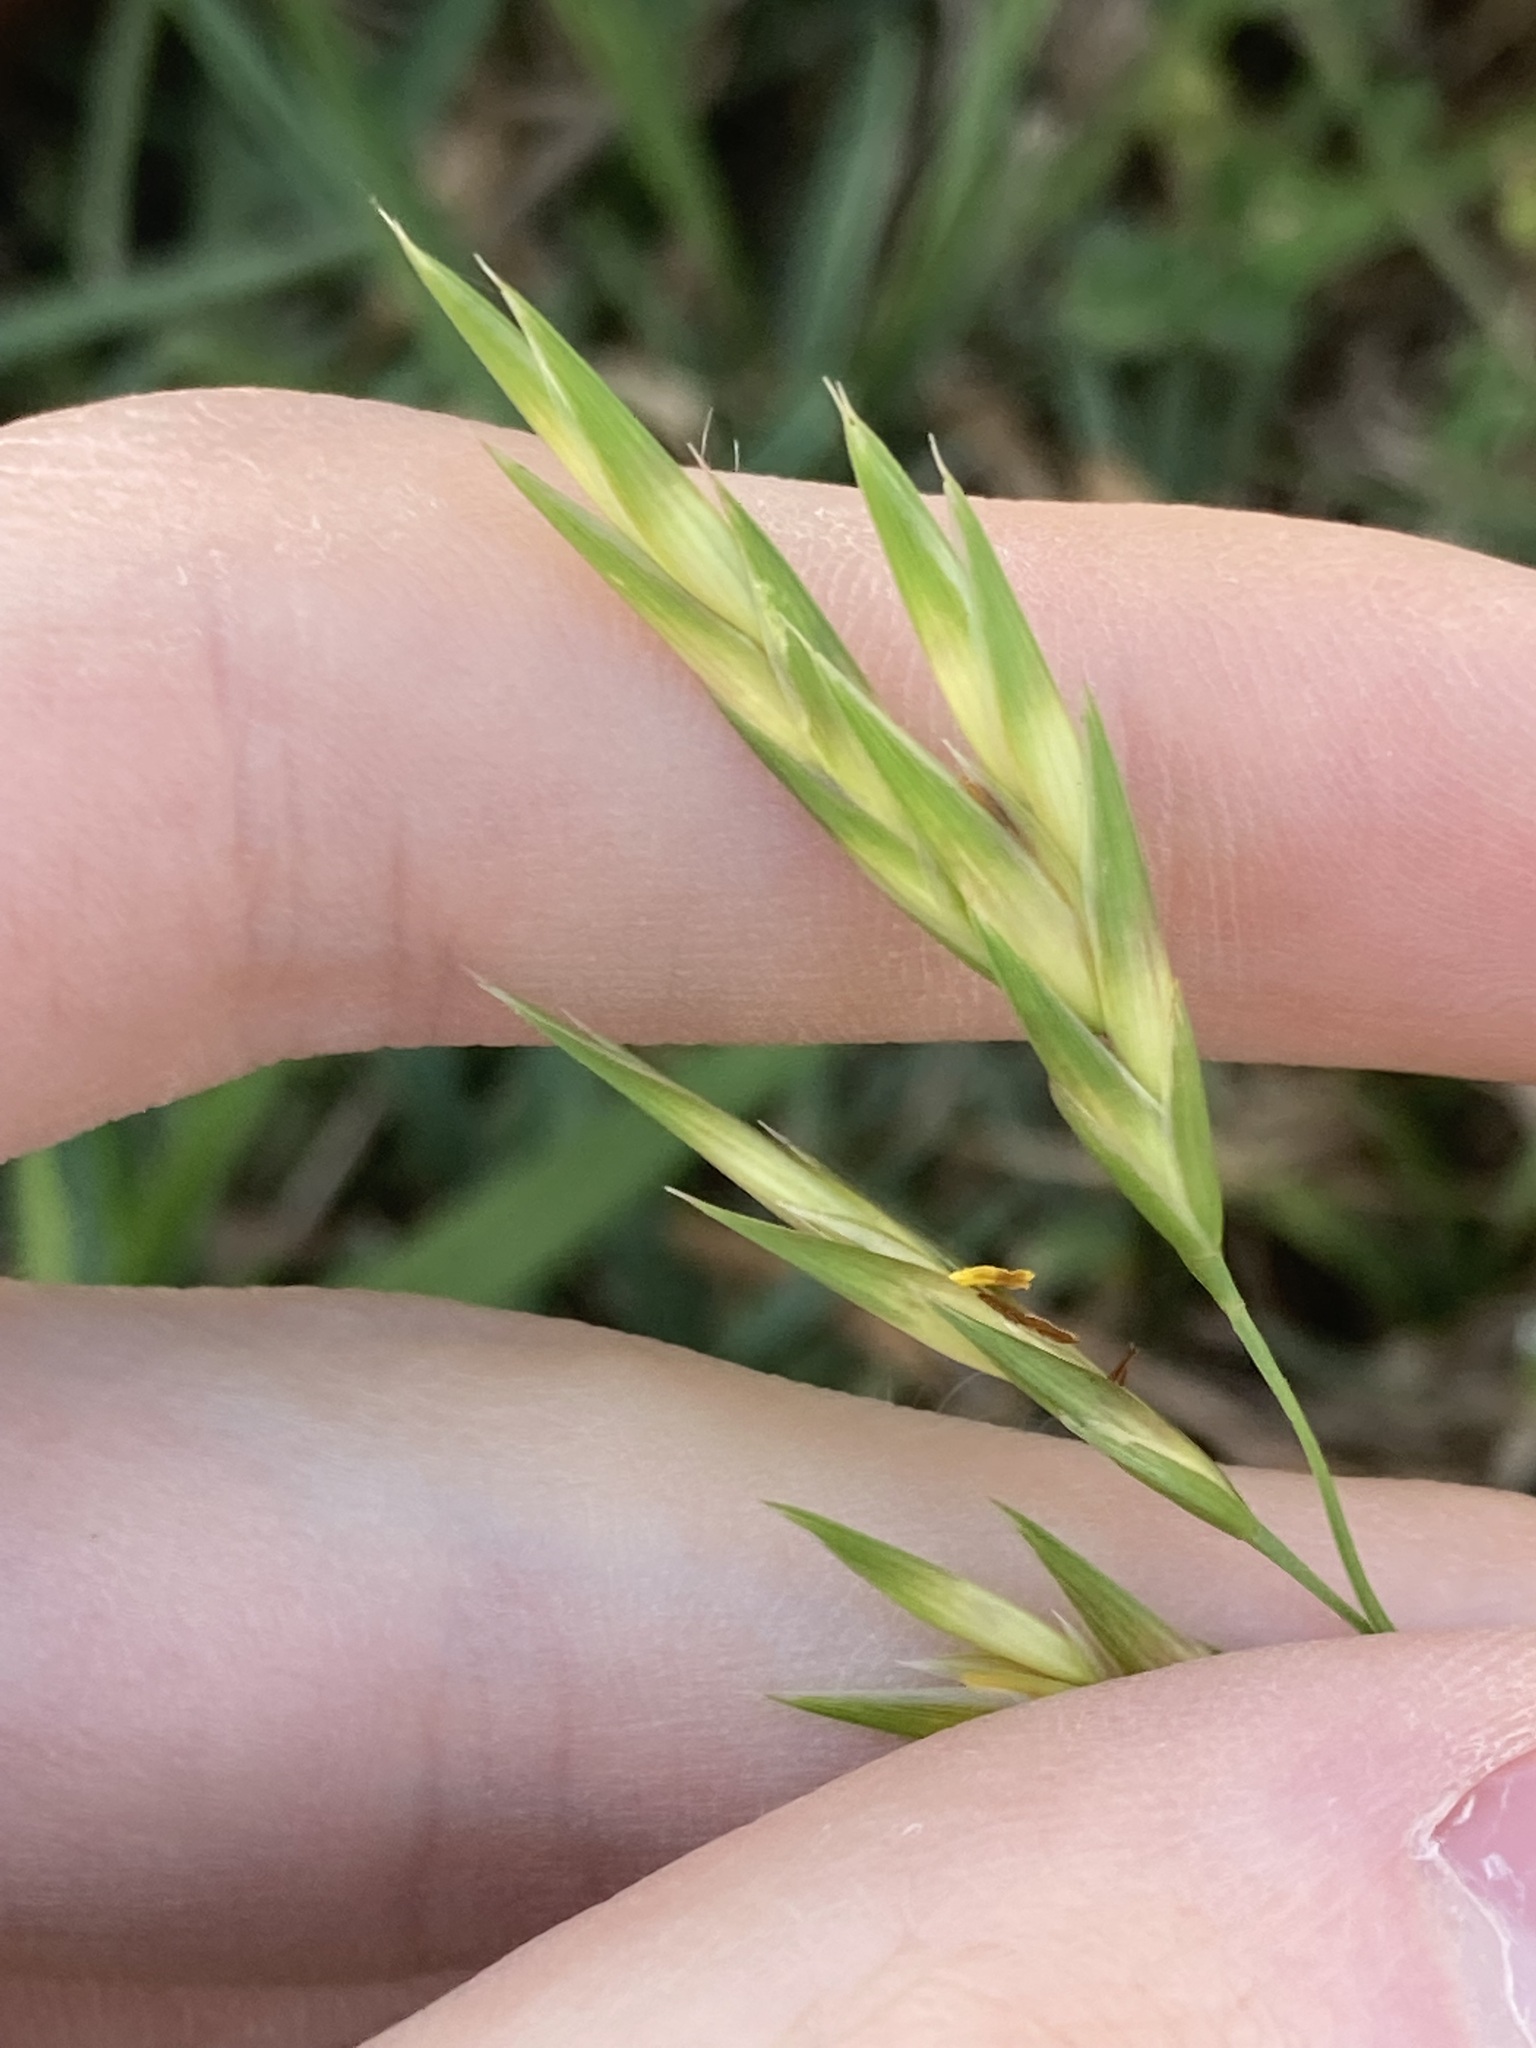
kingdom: Plantae
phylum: Tracheophyta
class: Liliopsida
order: Poales
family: Poaceae
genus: Bromus
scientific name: Bromus catharticus
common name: Rescuegrass
